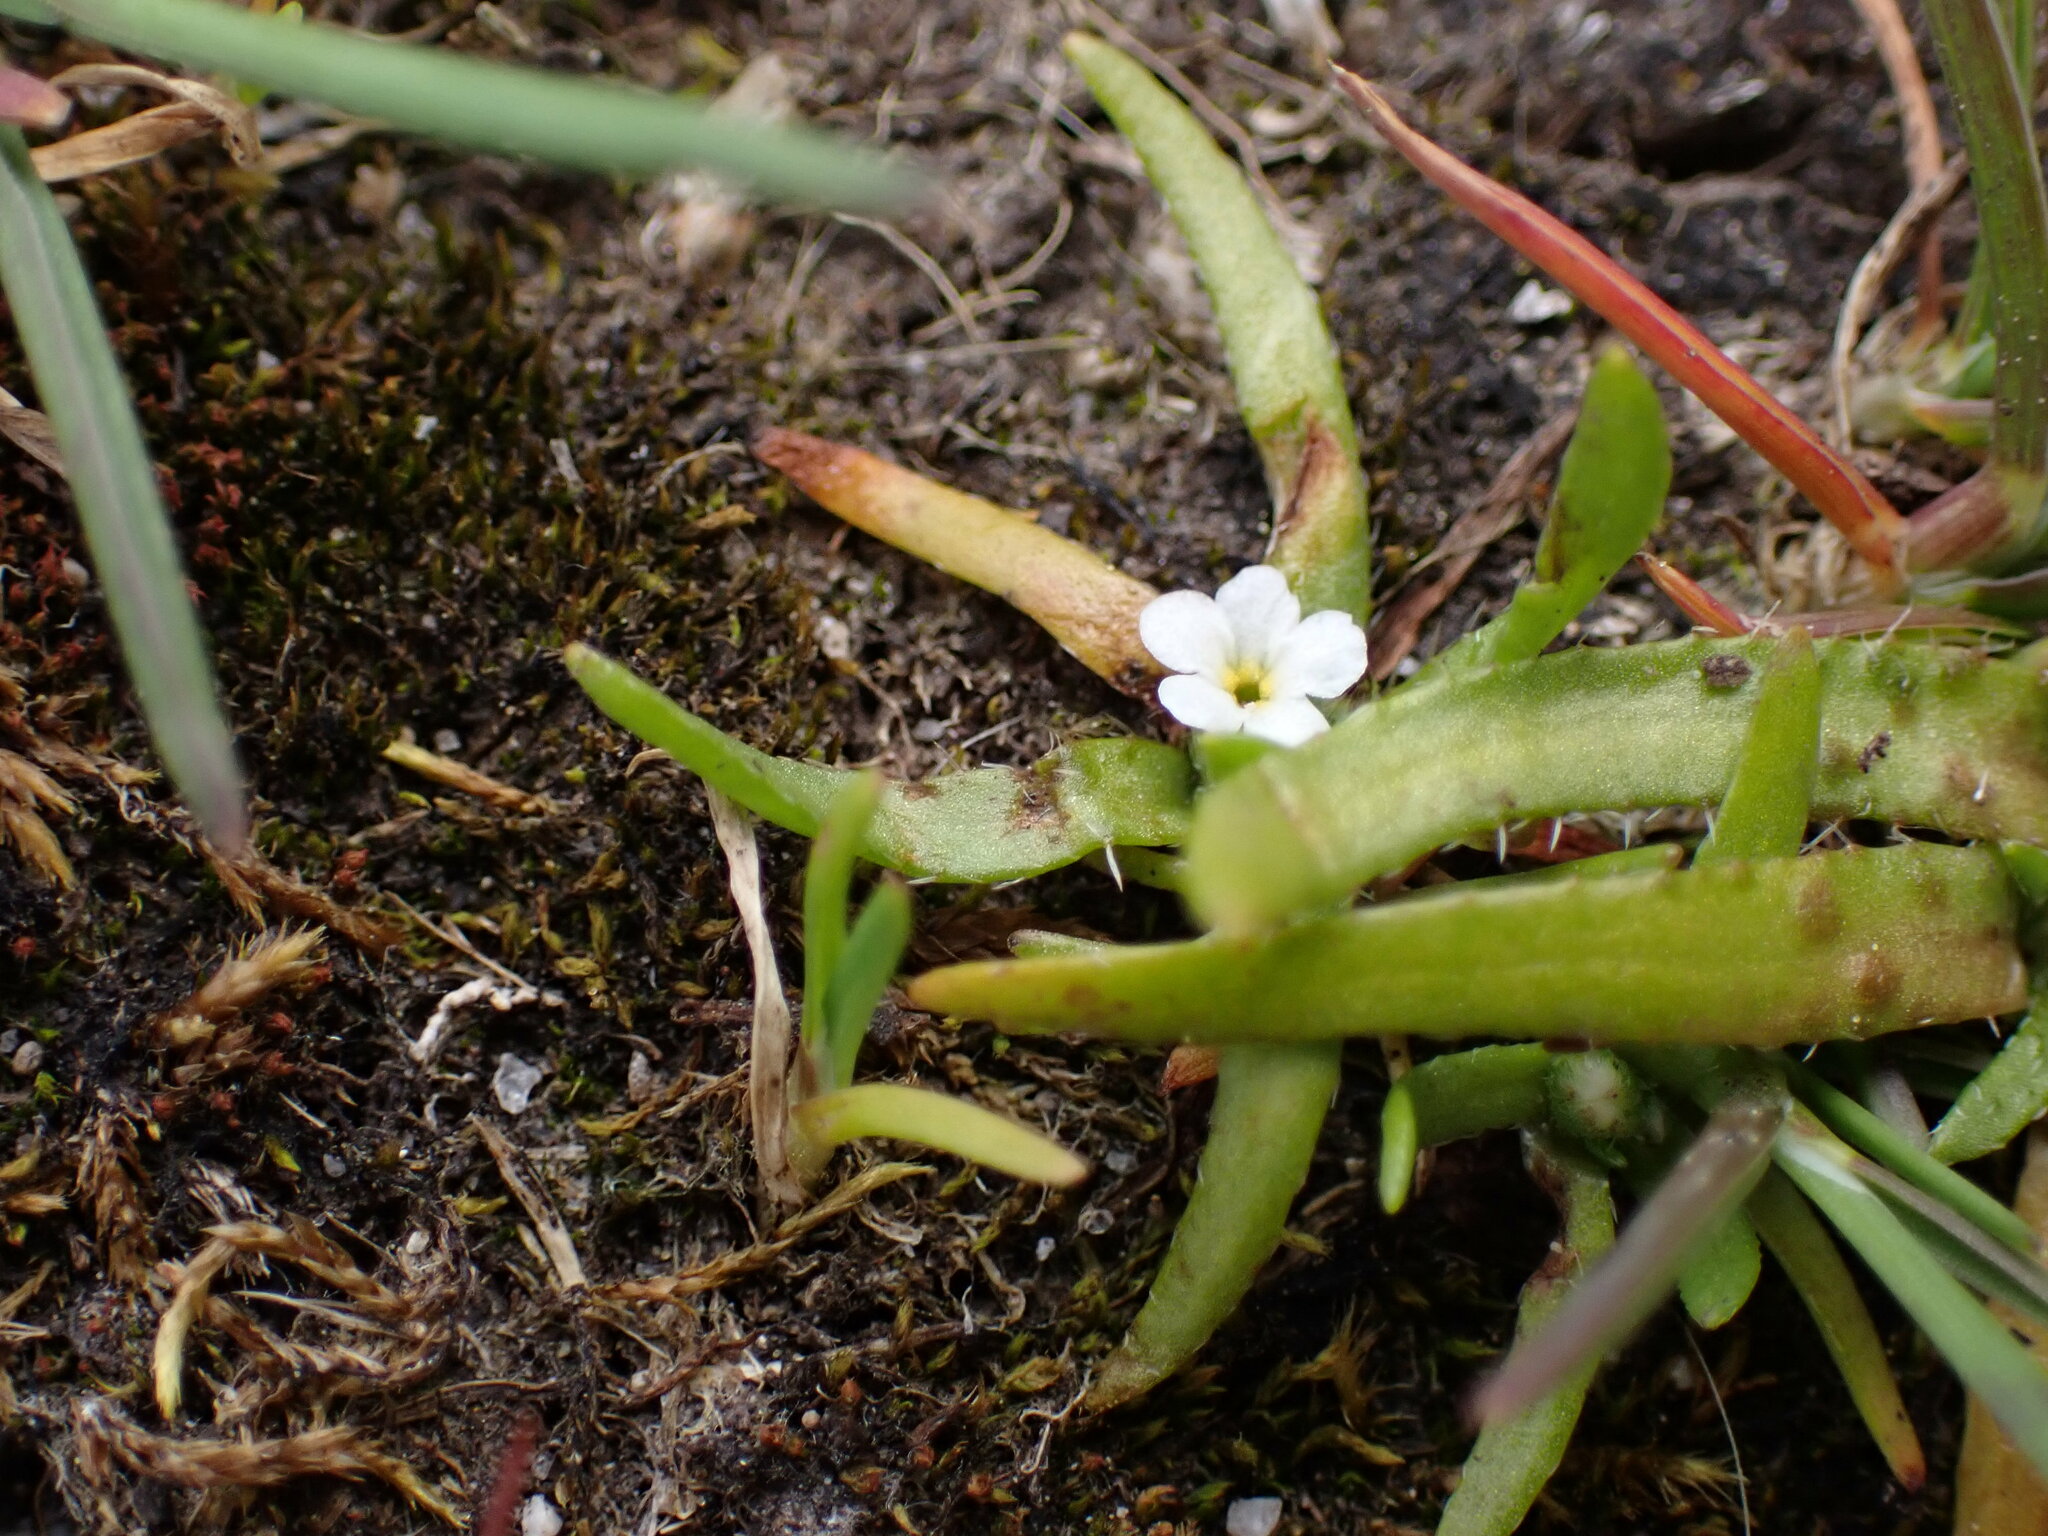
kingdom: Plantae
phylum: Tracheophyta
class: Magnoliopsida
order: Boraginales
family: Boraginaceae
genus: Plagiobothrys
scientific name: Plagiobothrys scouleri
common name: White forget-me-not
